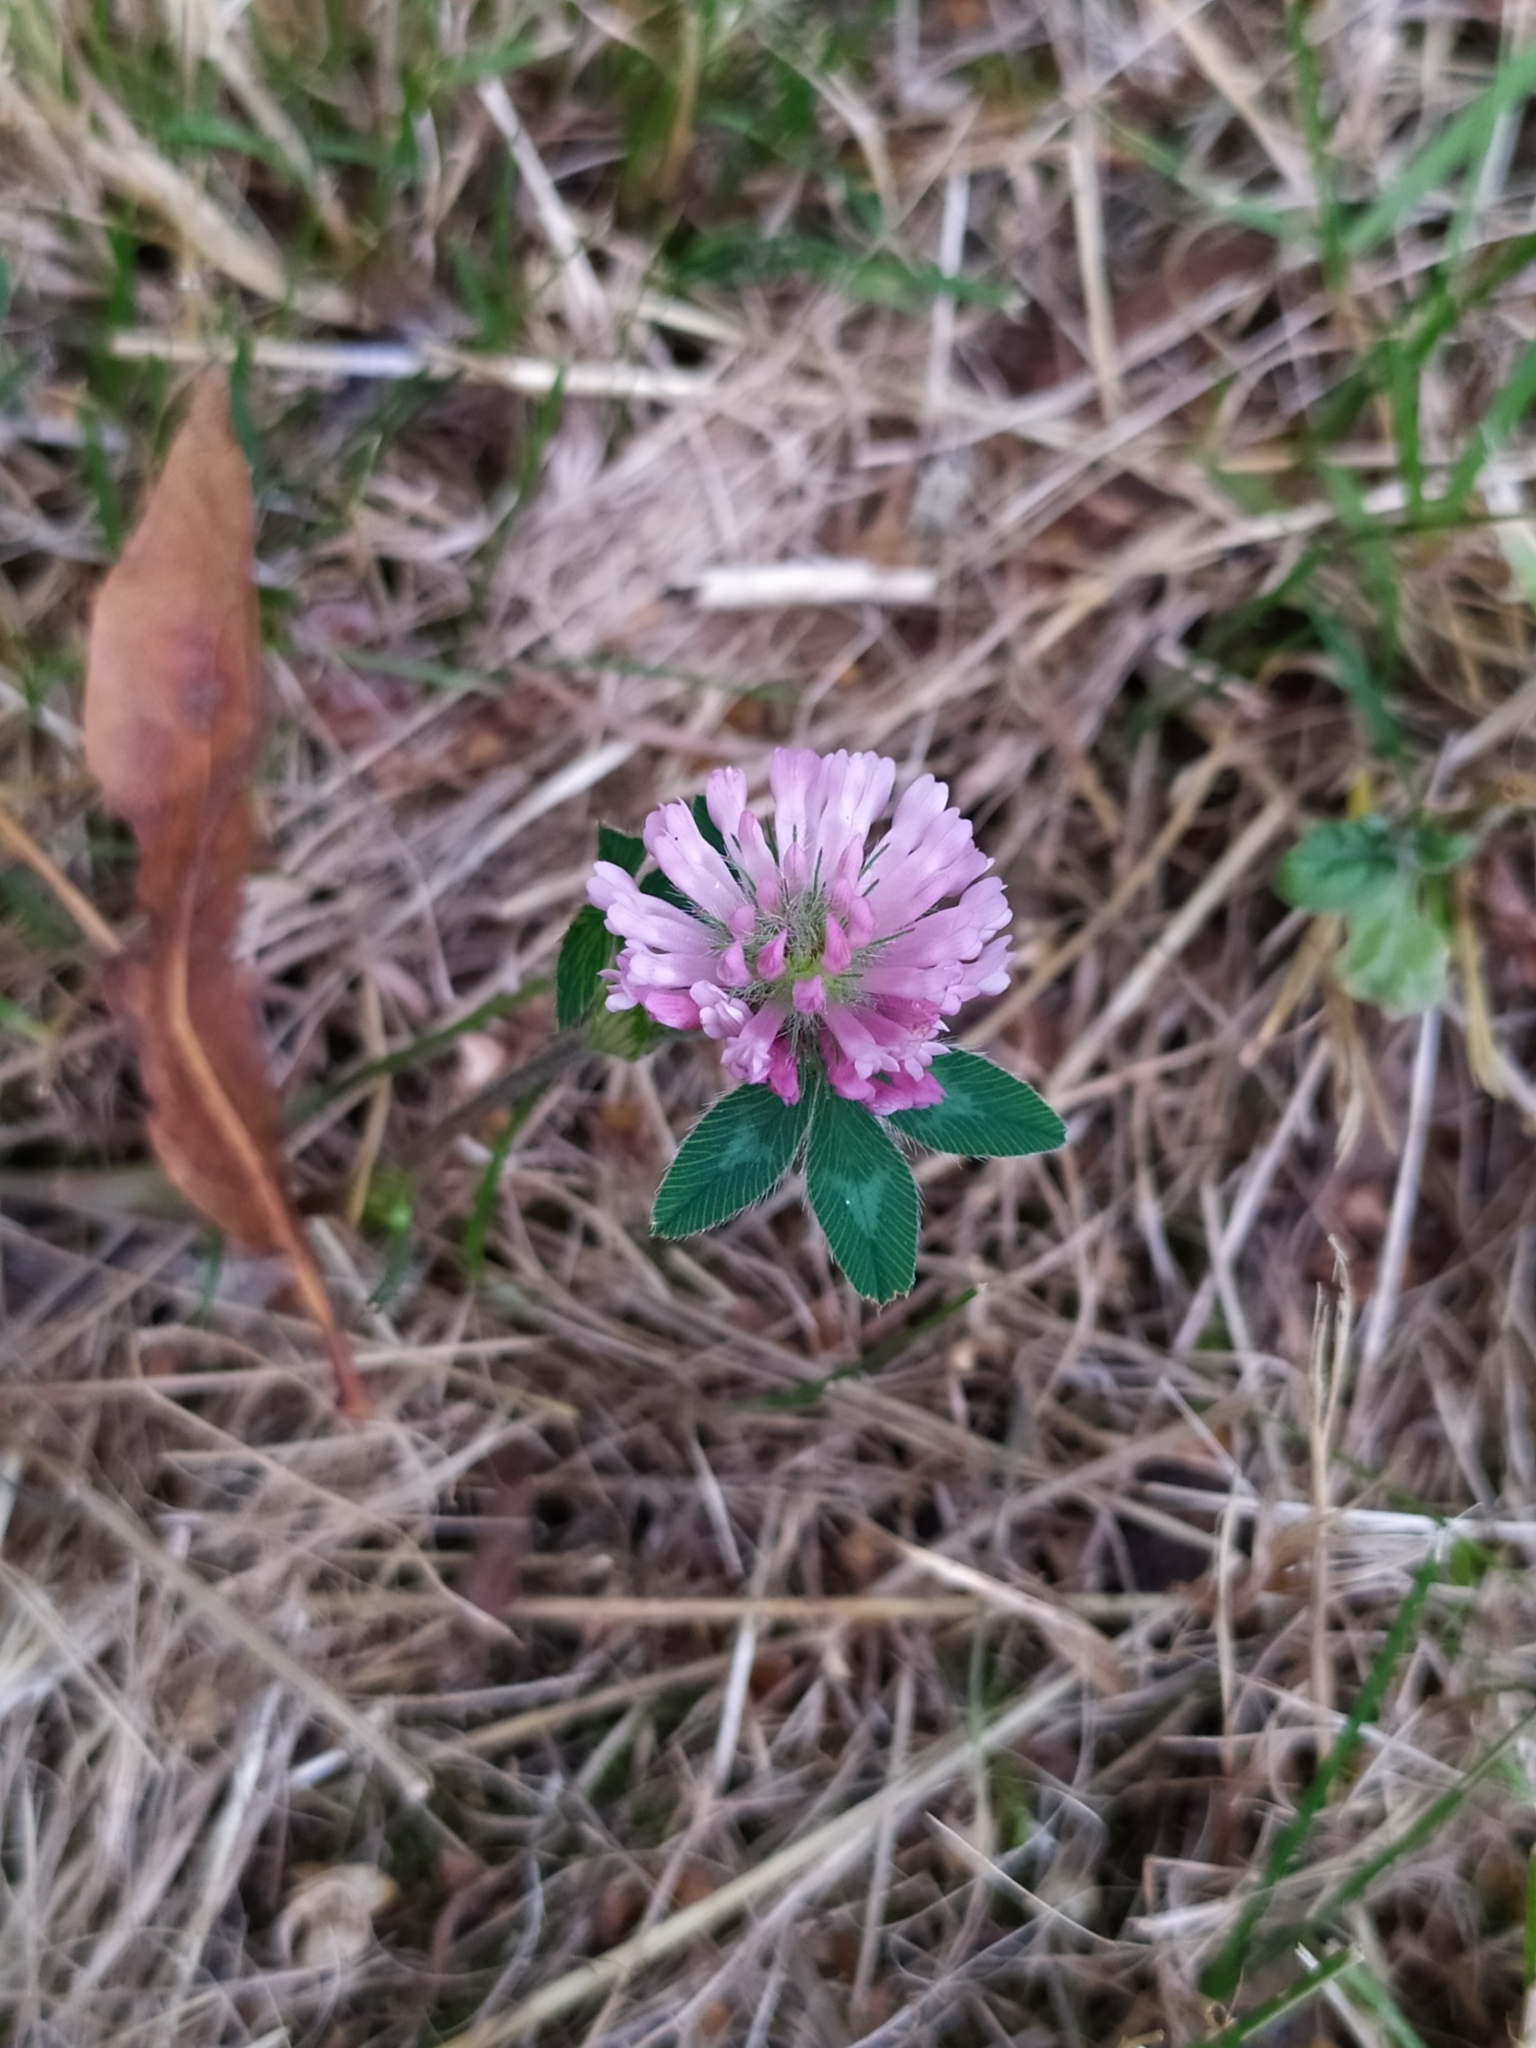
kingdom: Plantae
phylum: Tracheophyta
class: Magnoliopsida
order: Fabales
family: Fabaceae
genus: Trifolium
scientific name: Trifolium pratense
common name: Red clover
